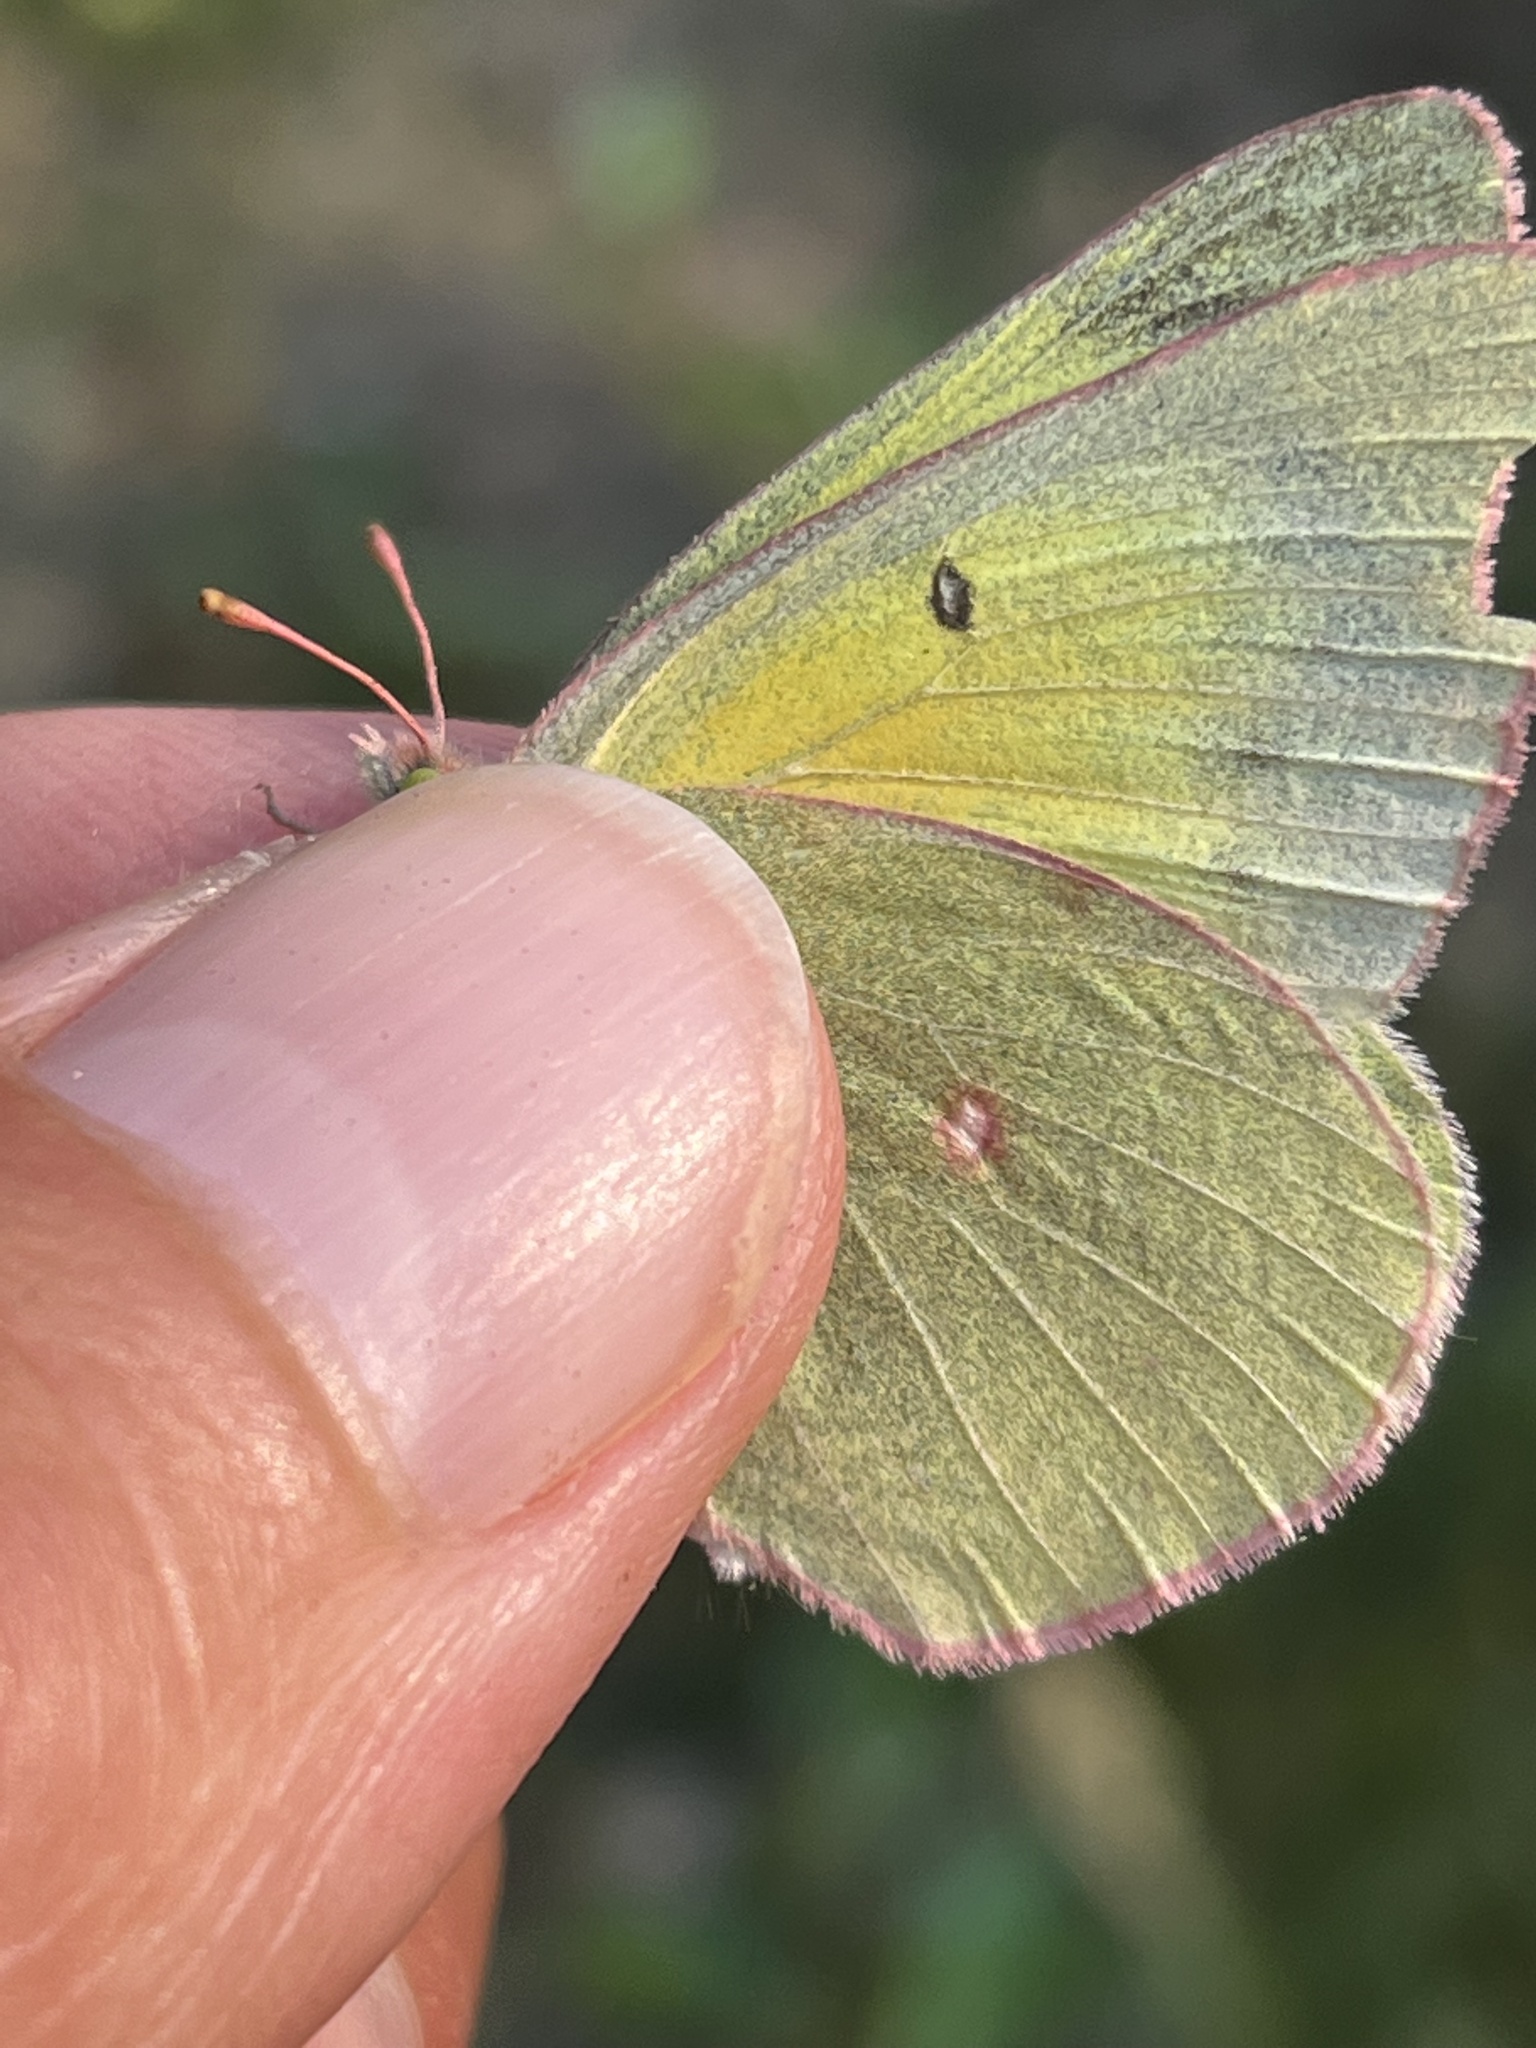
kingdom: Animalia
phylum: Arthropoda
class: Insecta
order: Lepidoptera
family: Pieridae
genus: Colias
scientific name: Colias christina
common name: Christina sulphur
